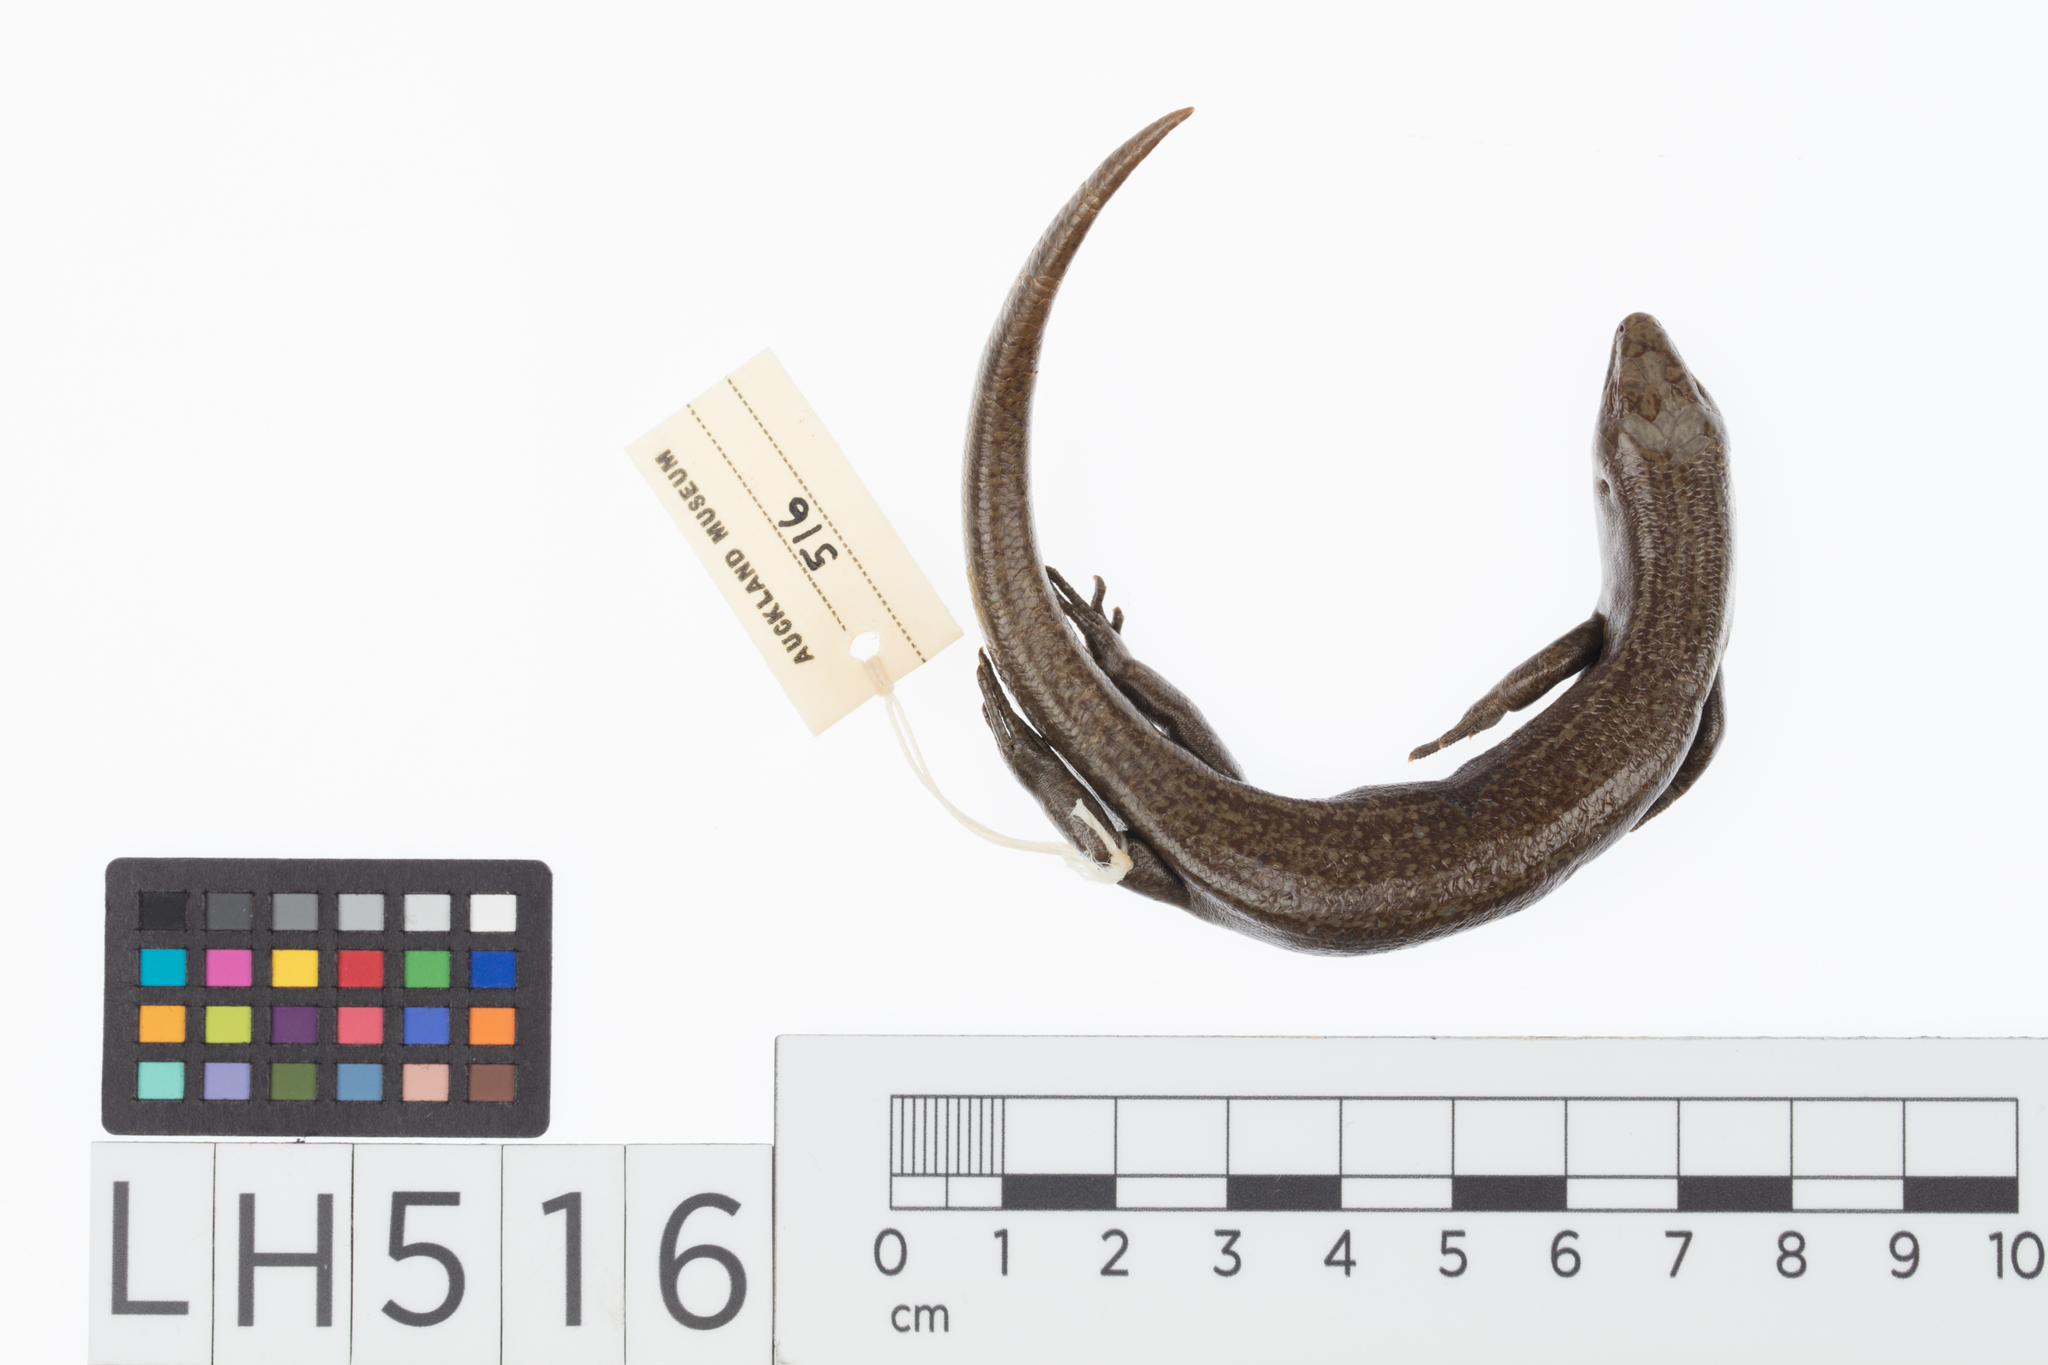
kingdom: Animalia
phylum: Chordata
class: Squamata
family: Scincidae
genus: Oligosoma
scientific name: Oligosoma nigriplantare
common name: Chathams skink
